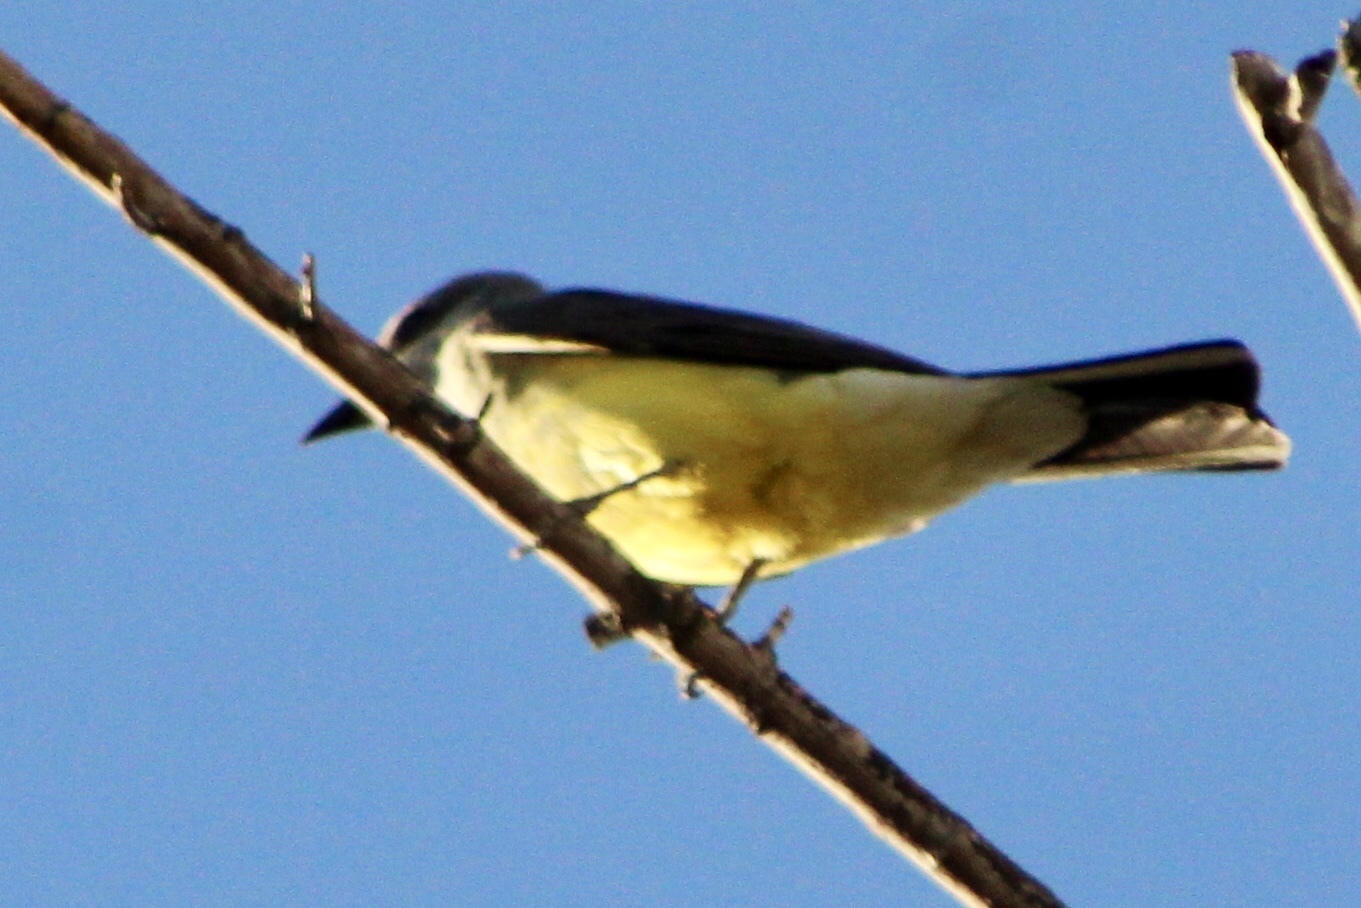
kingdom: Animalia
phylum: Chordata
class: Aves
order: Passeriformes
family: Tyrannidae
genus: Tyrannus
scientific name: Tyrannus verticalis
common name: Western kingbird
